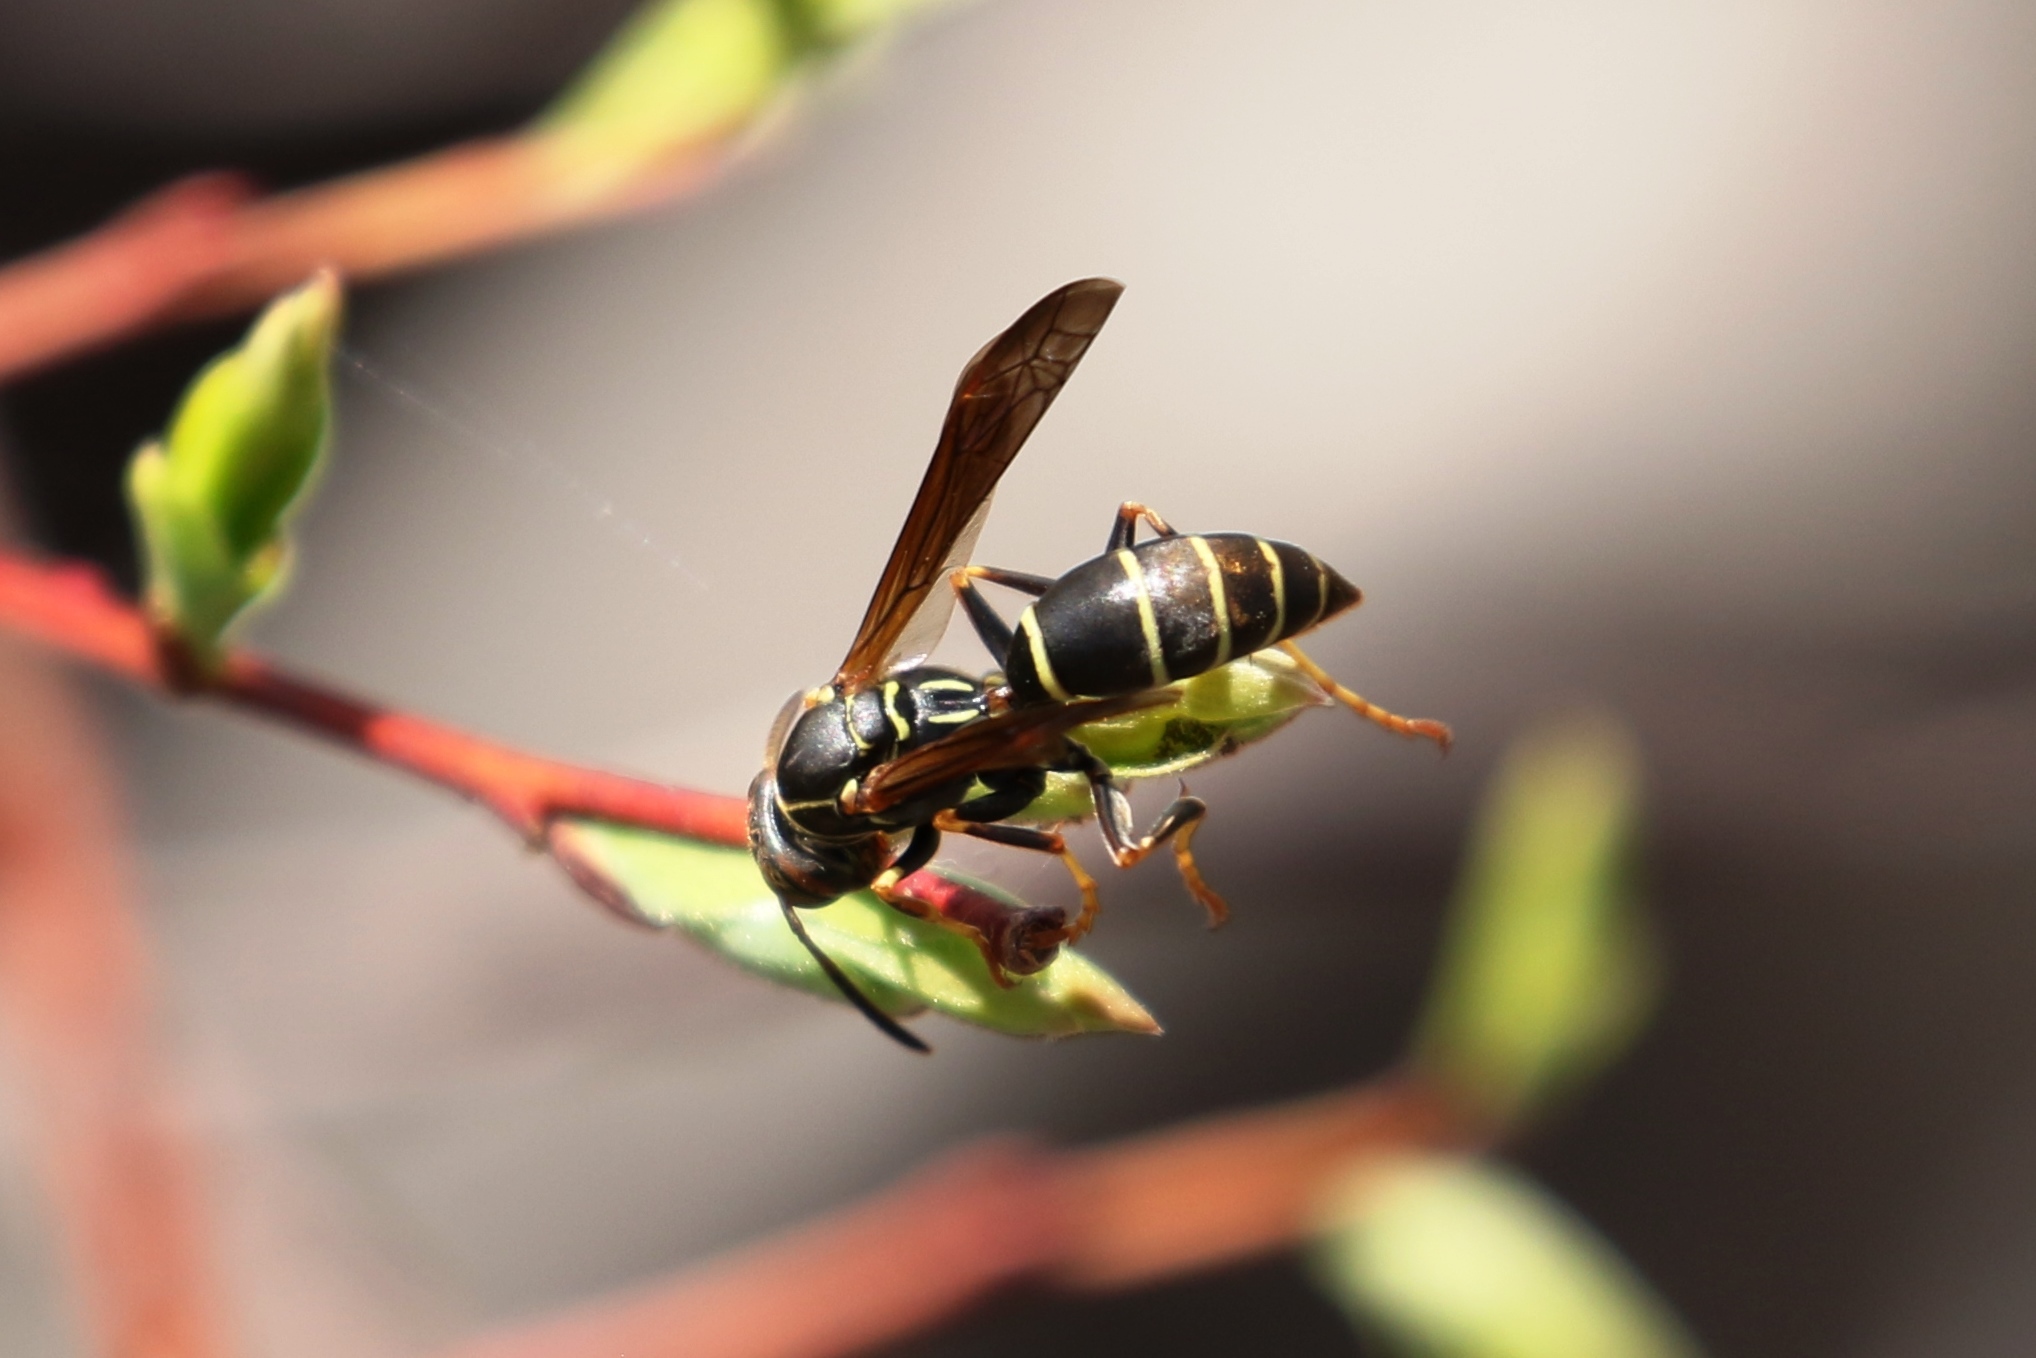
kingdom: Animalia
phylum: Arthropoda
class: Insecta
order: Hymenoptera
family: Eumenidae
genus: Polistes
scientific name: Polistes fuscatus
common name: Dark paper wasp
